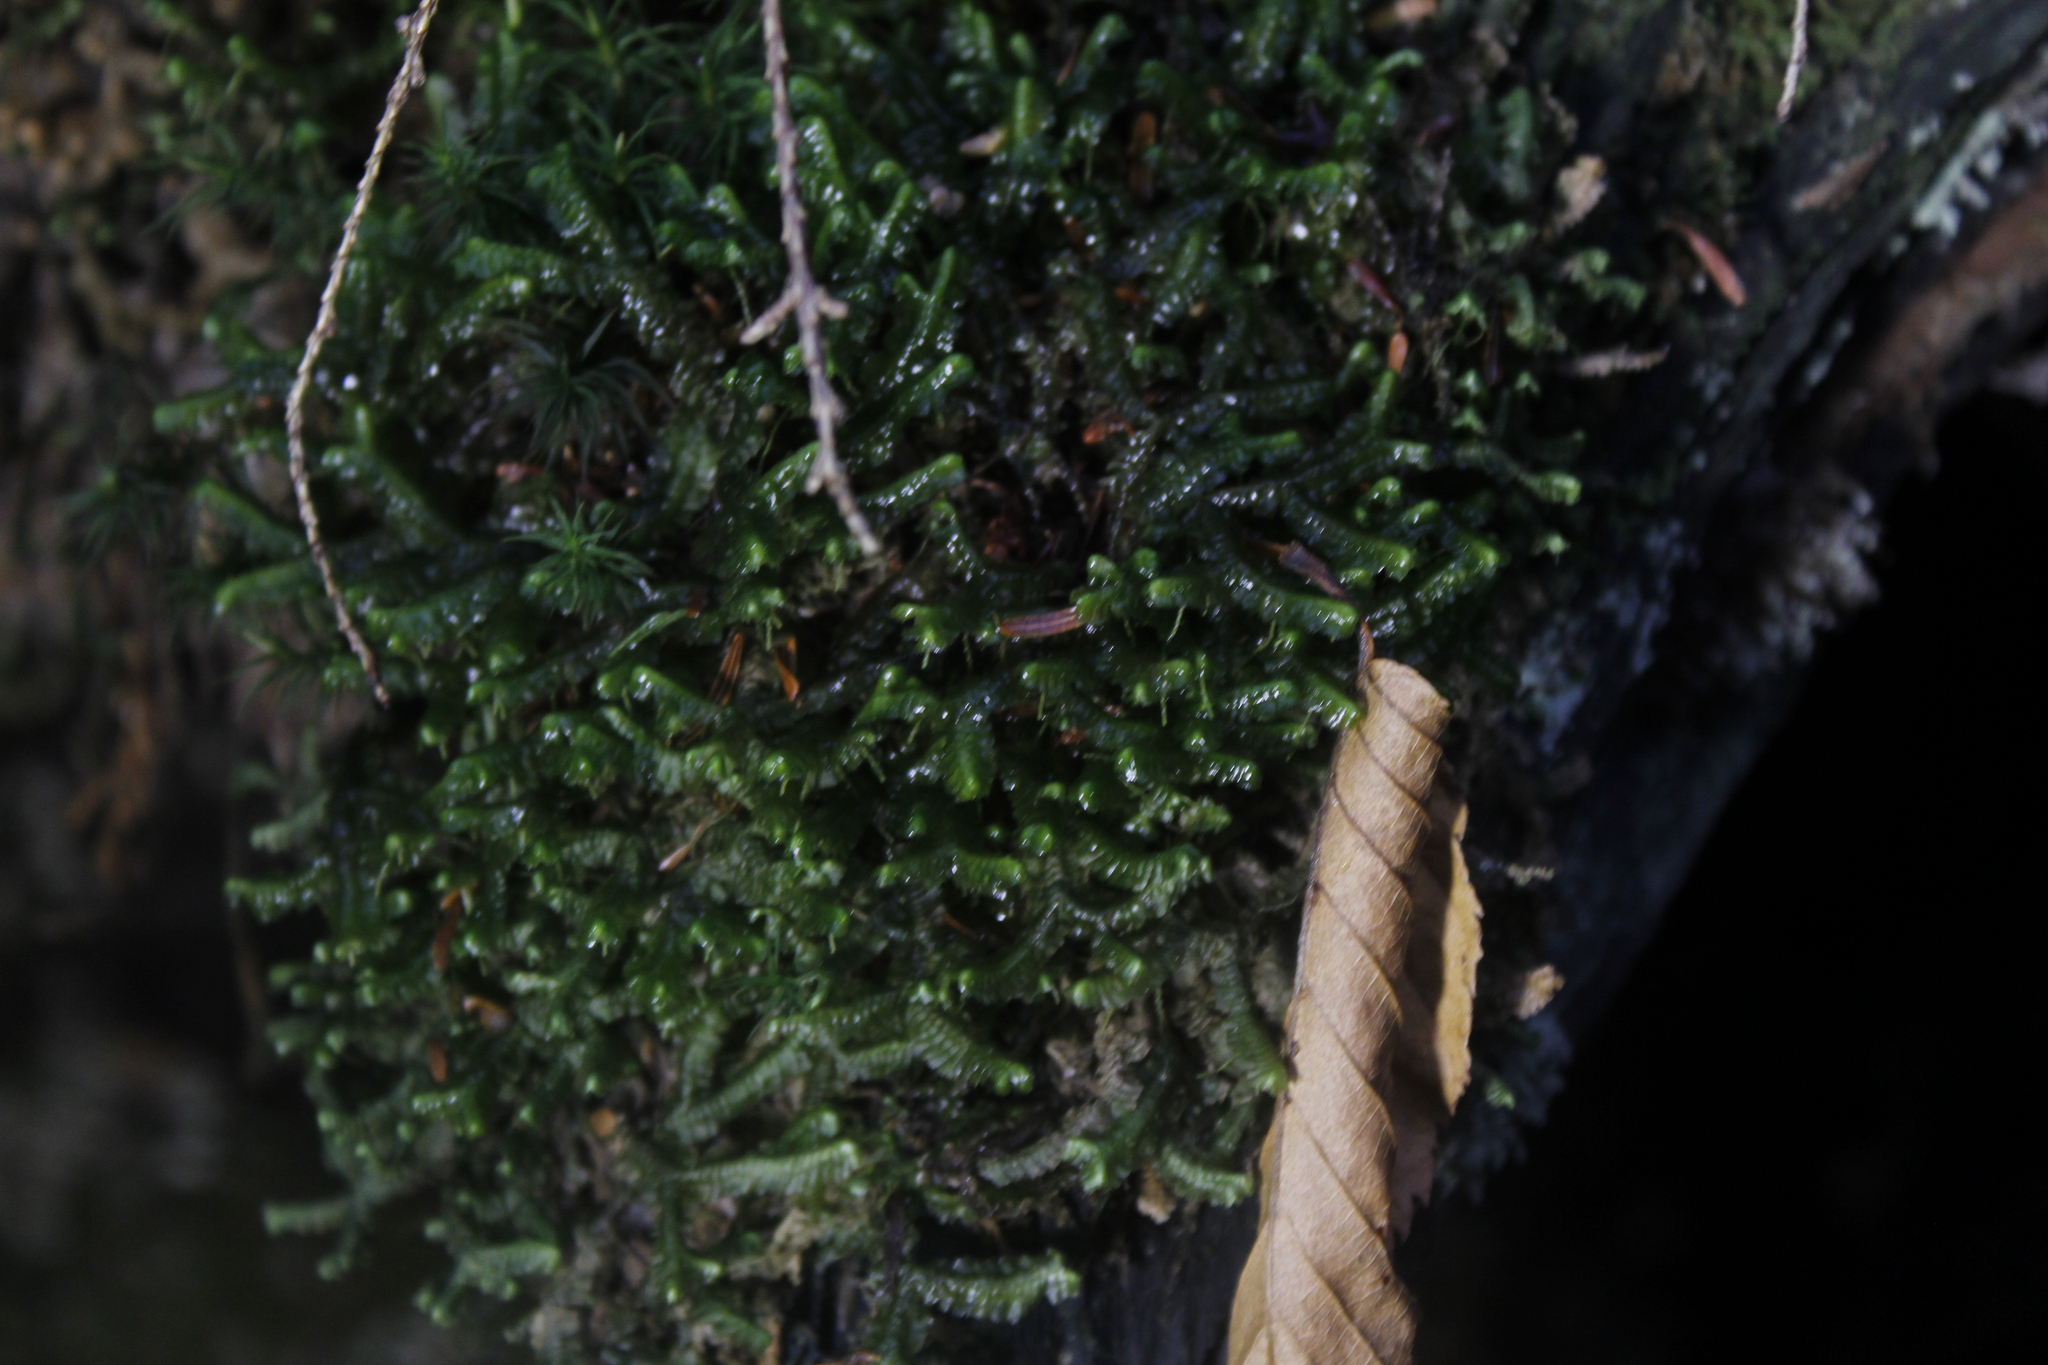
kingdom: Plantae
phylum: Marchantiophyta
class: Jungermanniopsida
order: Jungermanniales
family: Lepidoziaceae
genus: Bazzania
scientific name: Bazzania trilobata
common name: Three-lobed whipwort
